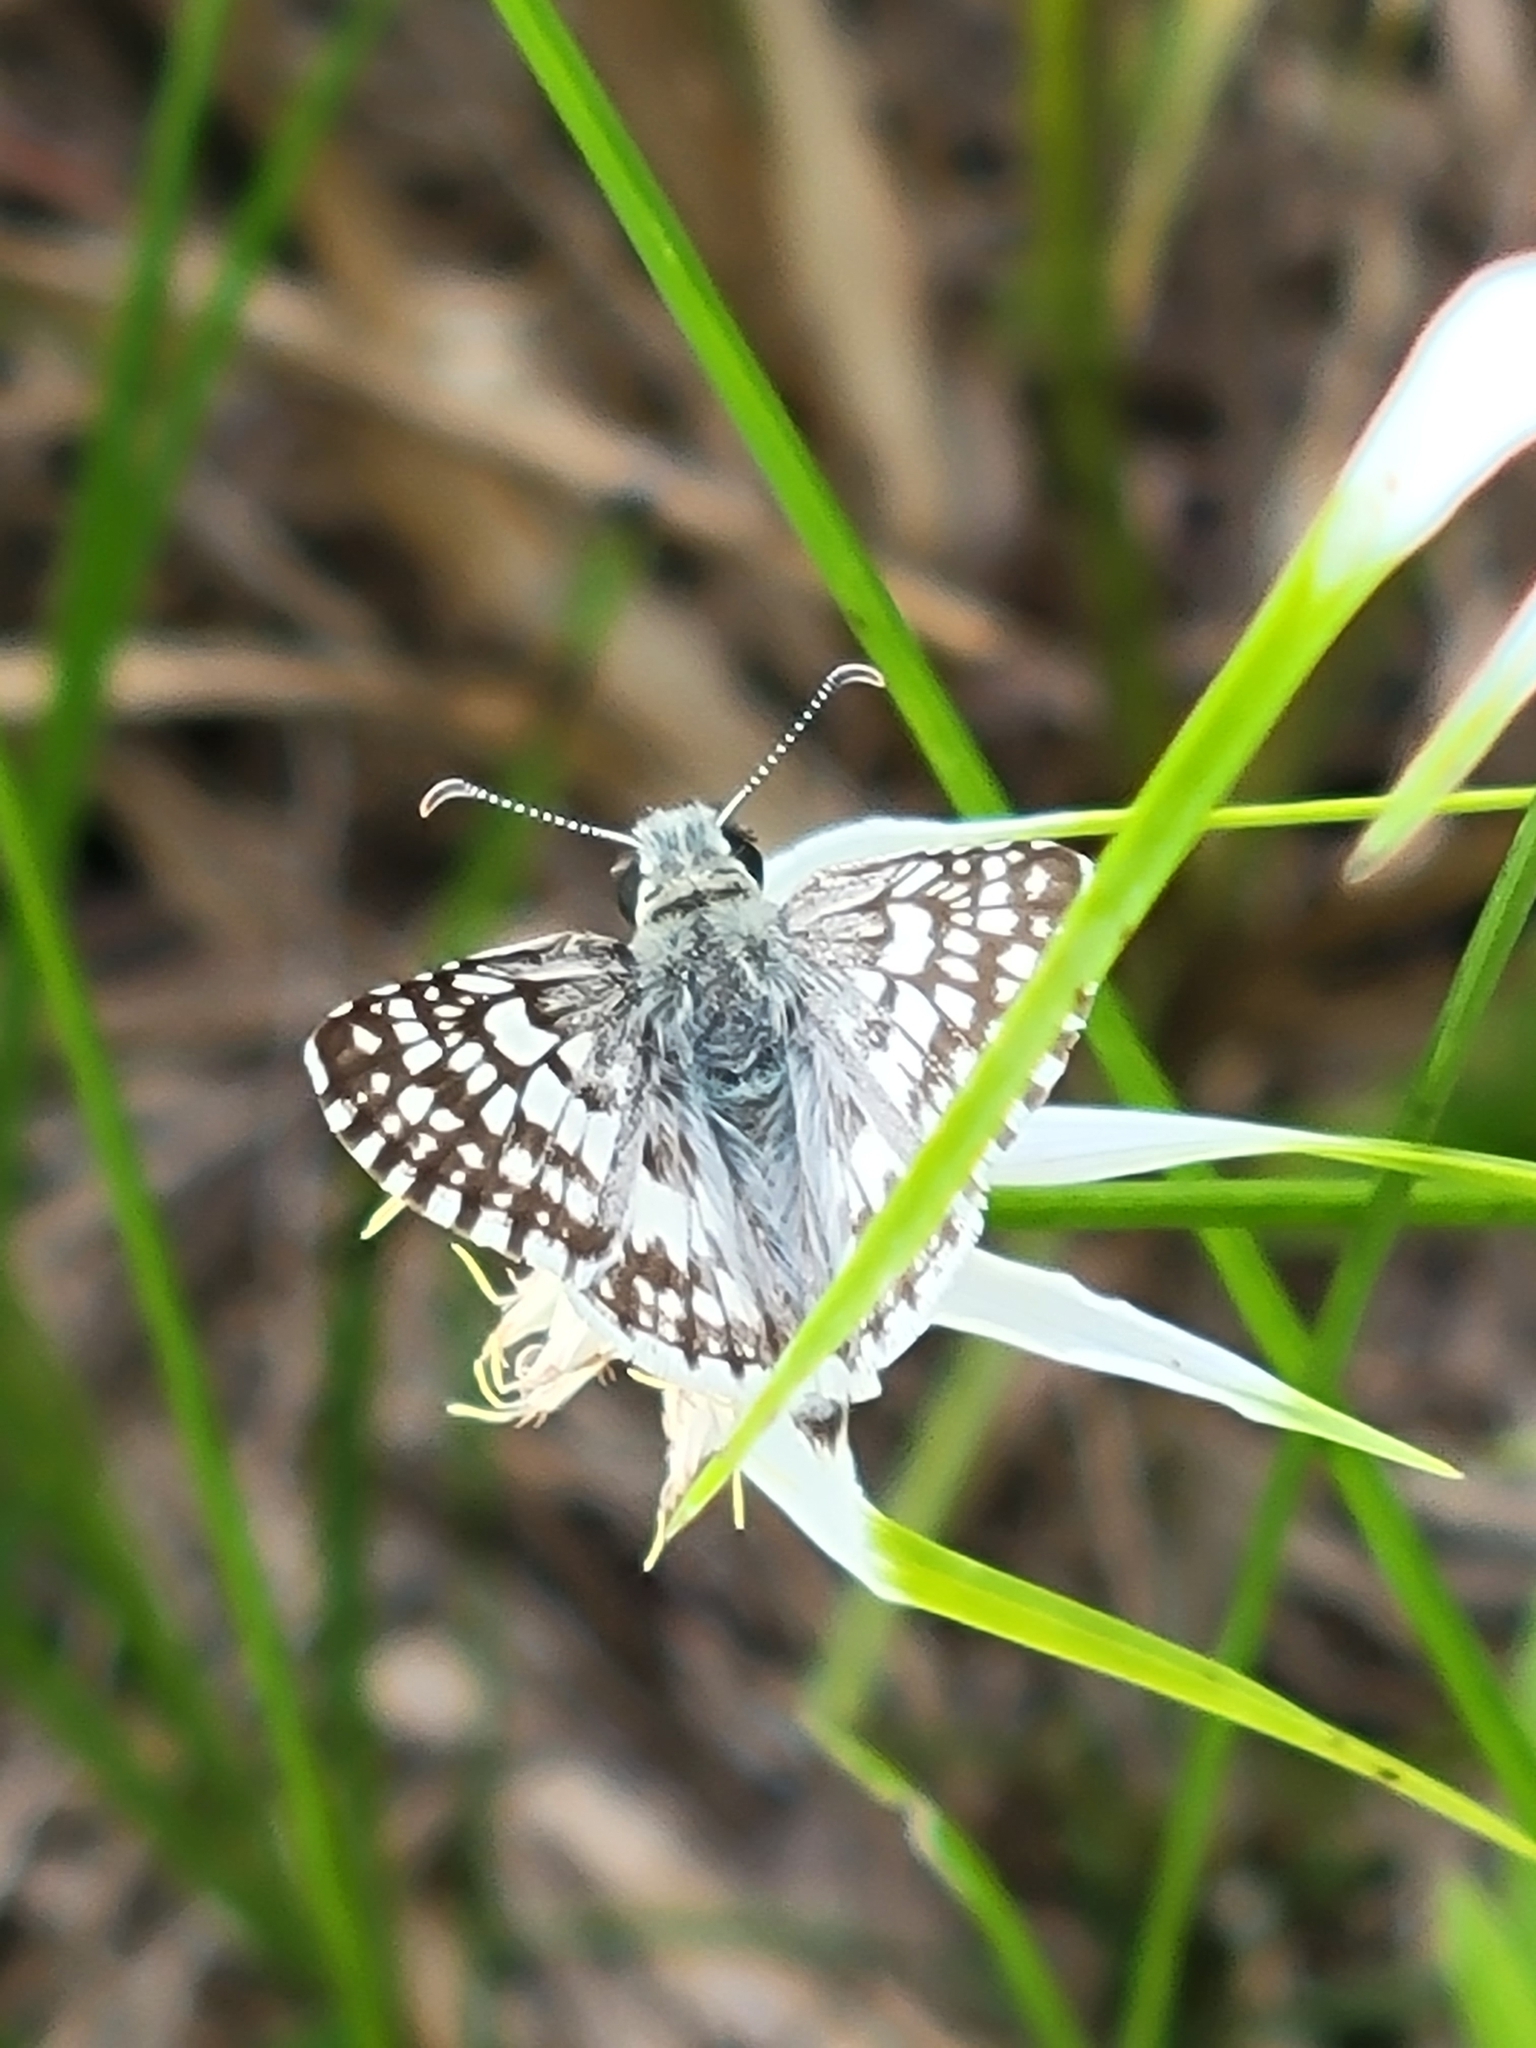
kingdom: Animalia
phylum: Arthropoda
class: Insecta
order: Lepidoptera
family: Hesperiidae
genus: Burnsius
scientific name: Burnsius albezens
